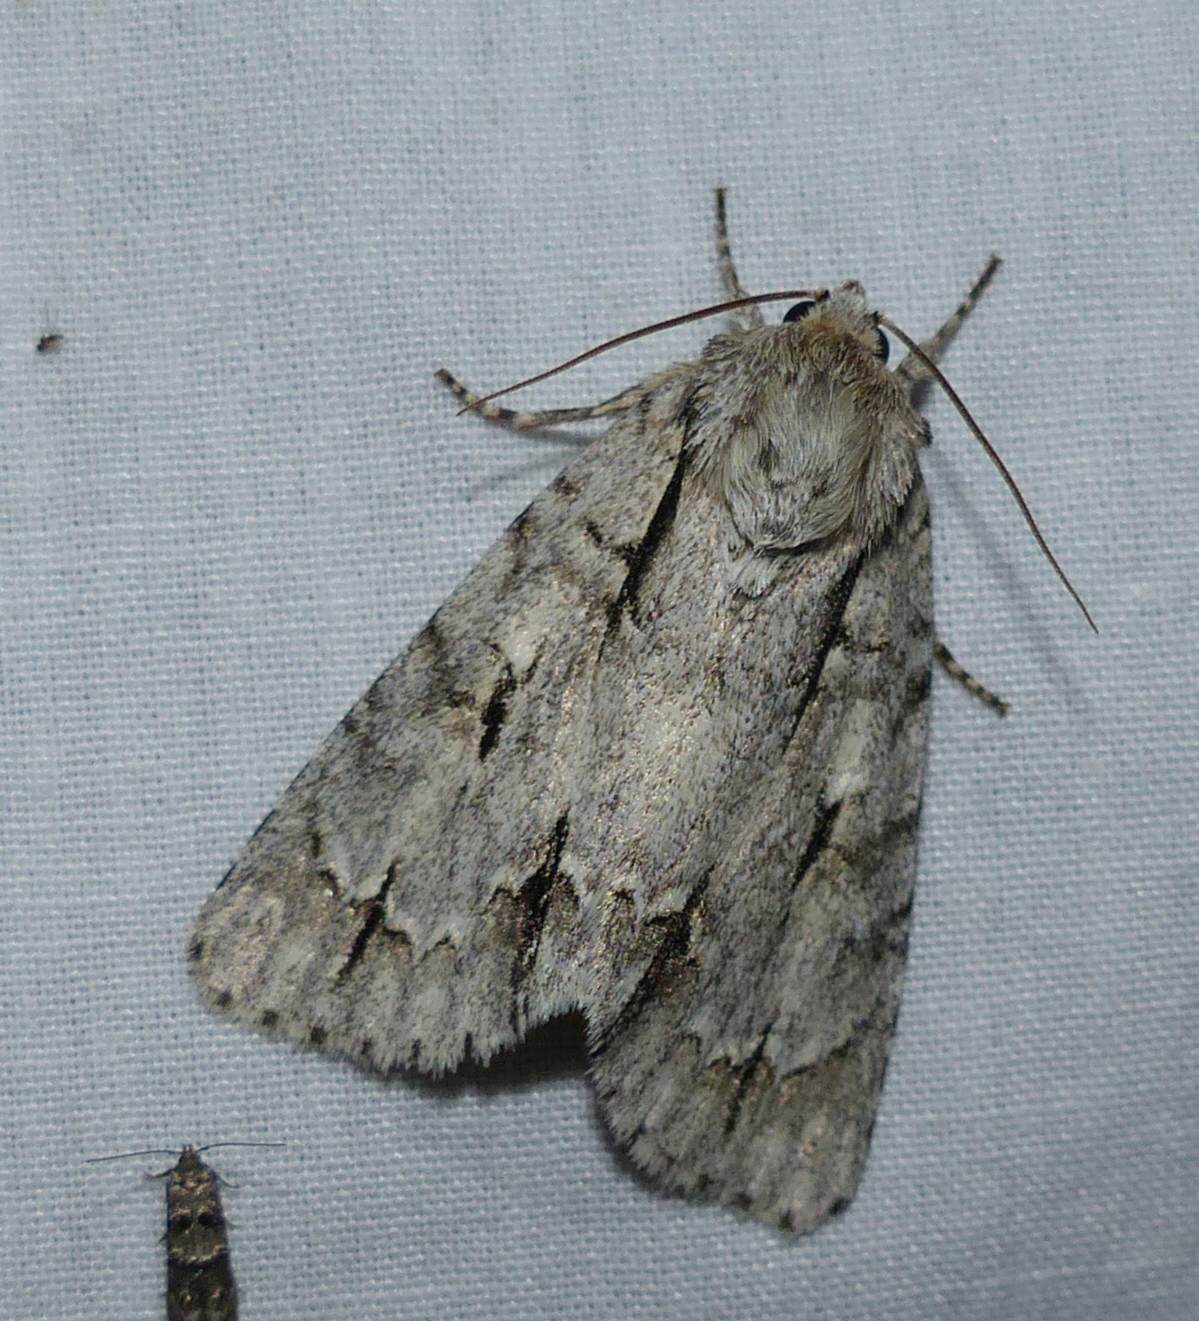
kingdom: Animalia
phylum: Arthropoda
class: Insecta
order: Lepidoptera
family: Noctuidae
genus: Acronicta
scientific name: Acronicta laetifica
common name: Pleasant dagger
